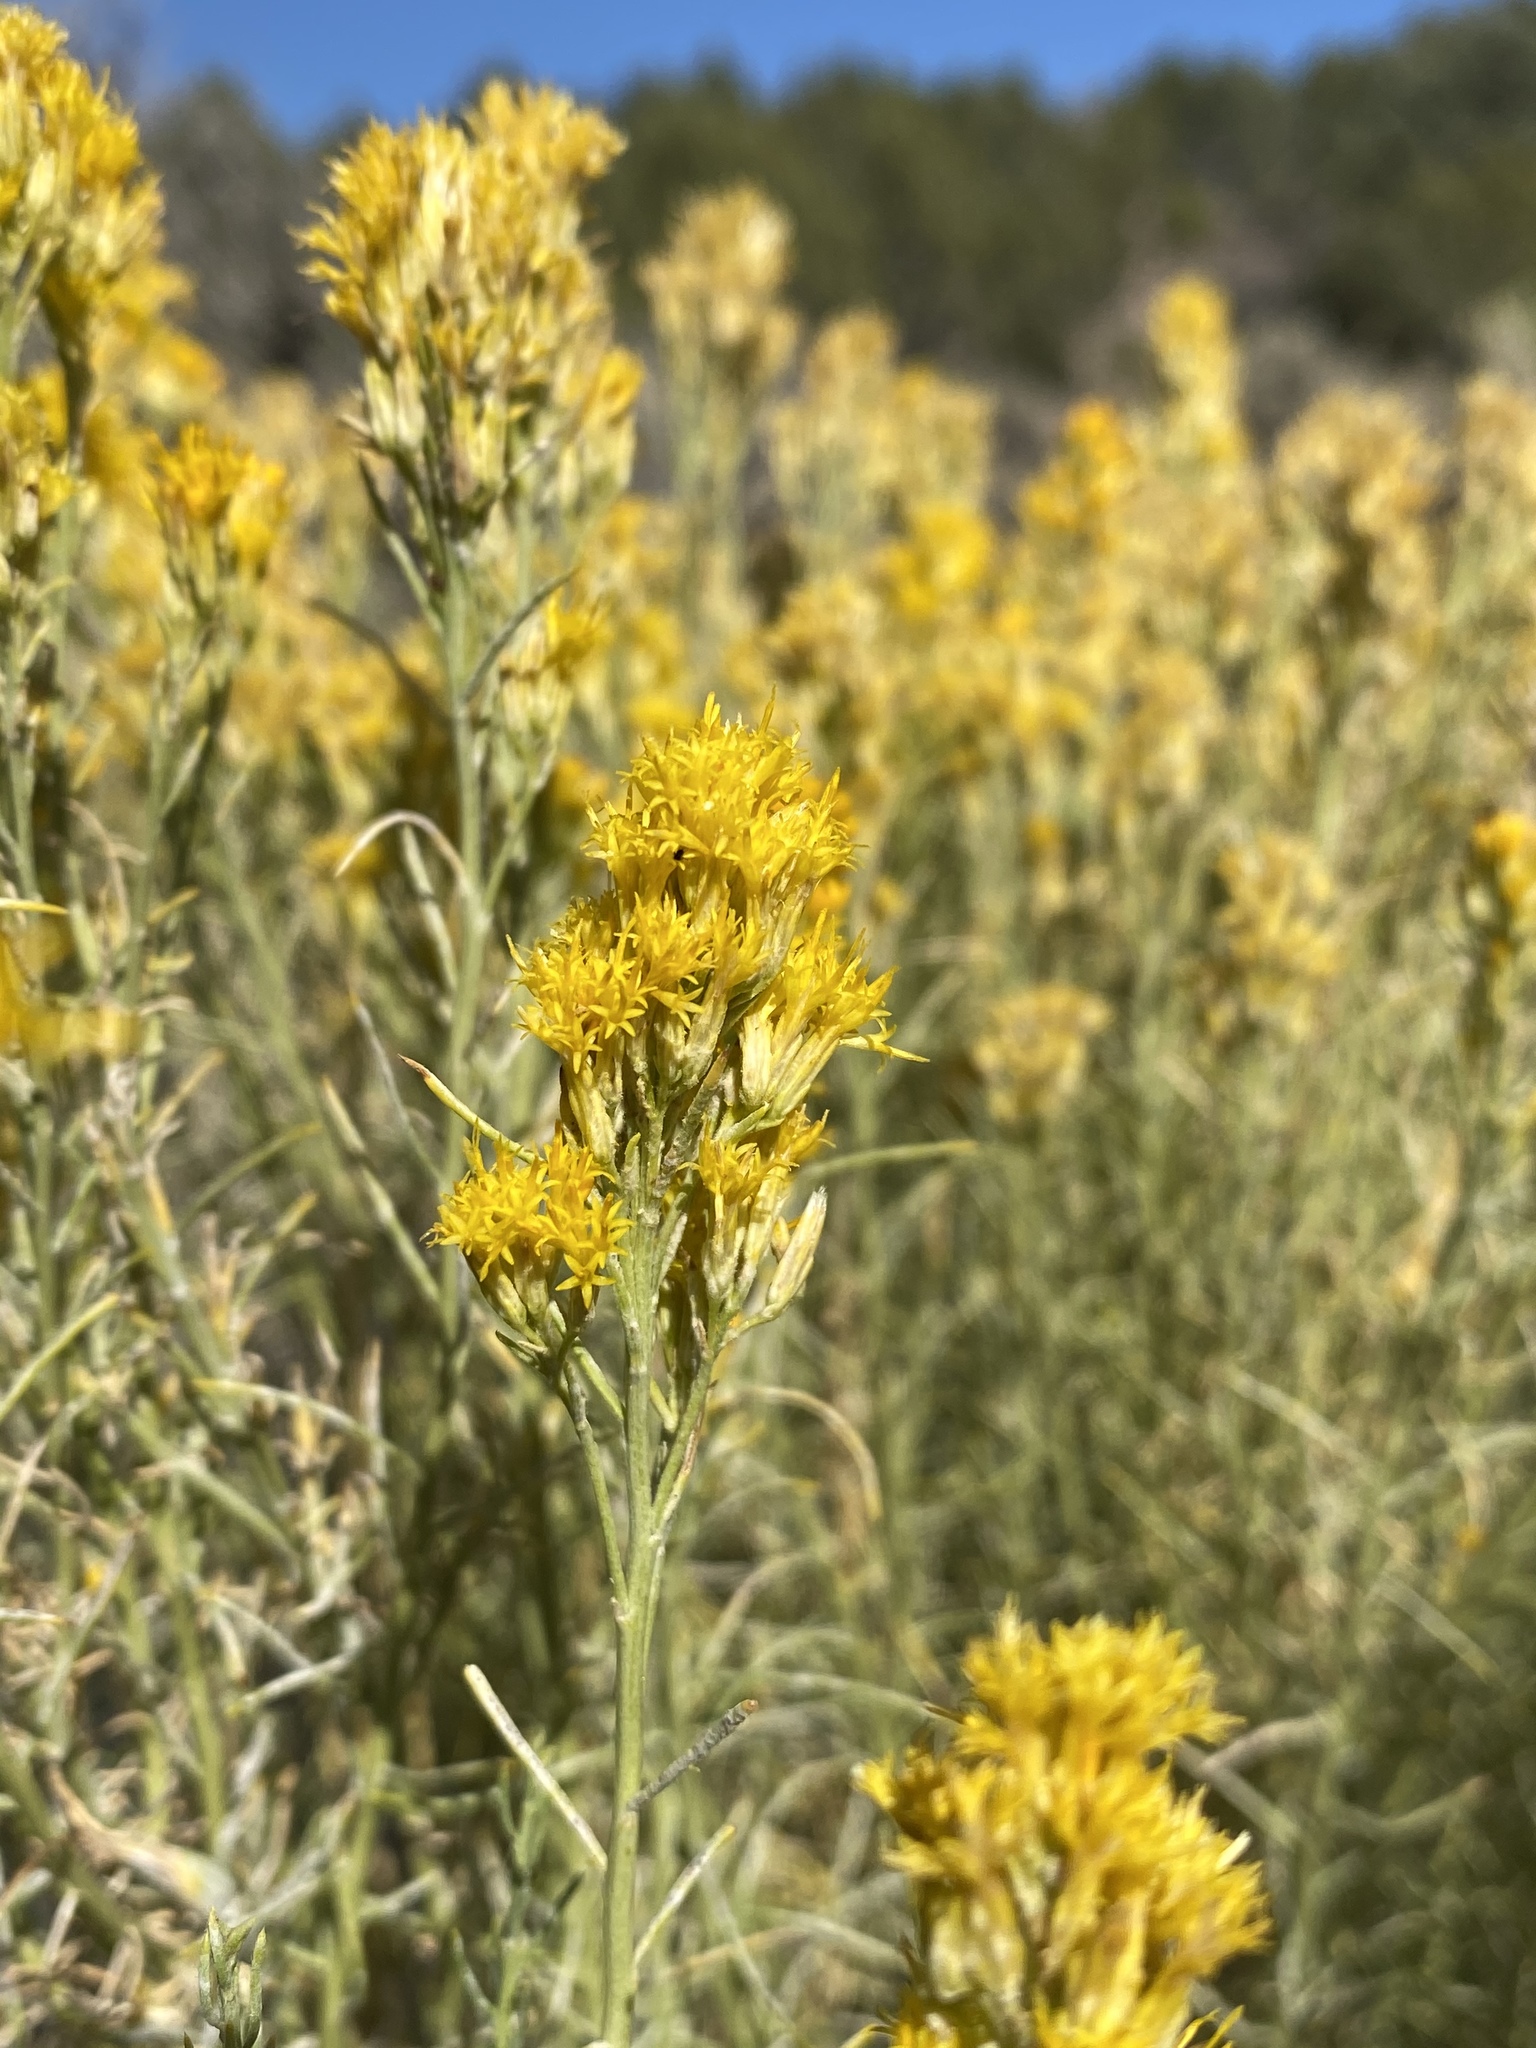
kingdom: Plantae
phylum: Tracheophyta
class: Magnoliopsida
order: Asterales
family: Asteraceae
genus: Ericameria
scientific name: Ericameria nauseosa
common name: Rubber rabbitbrush
